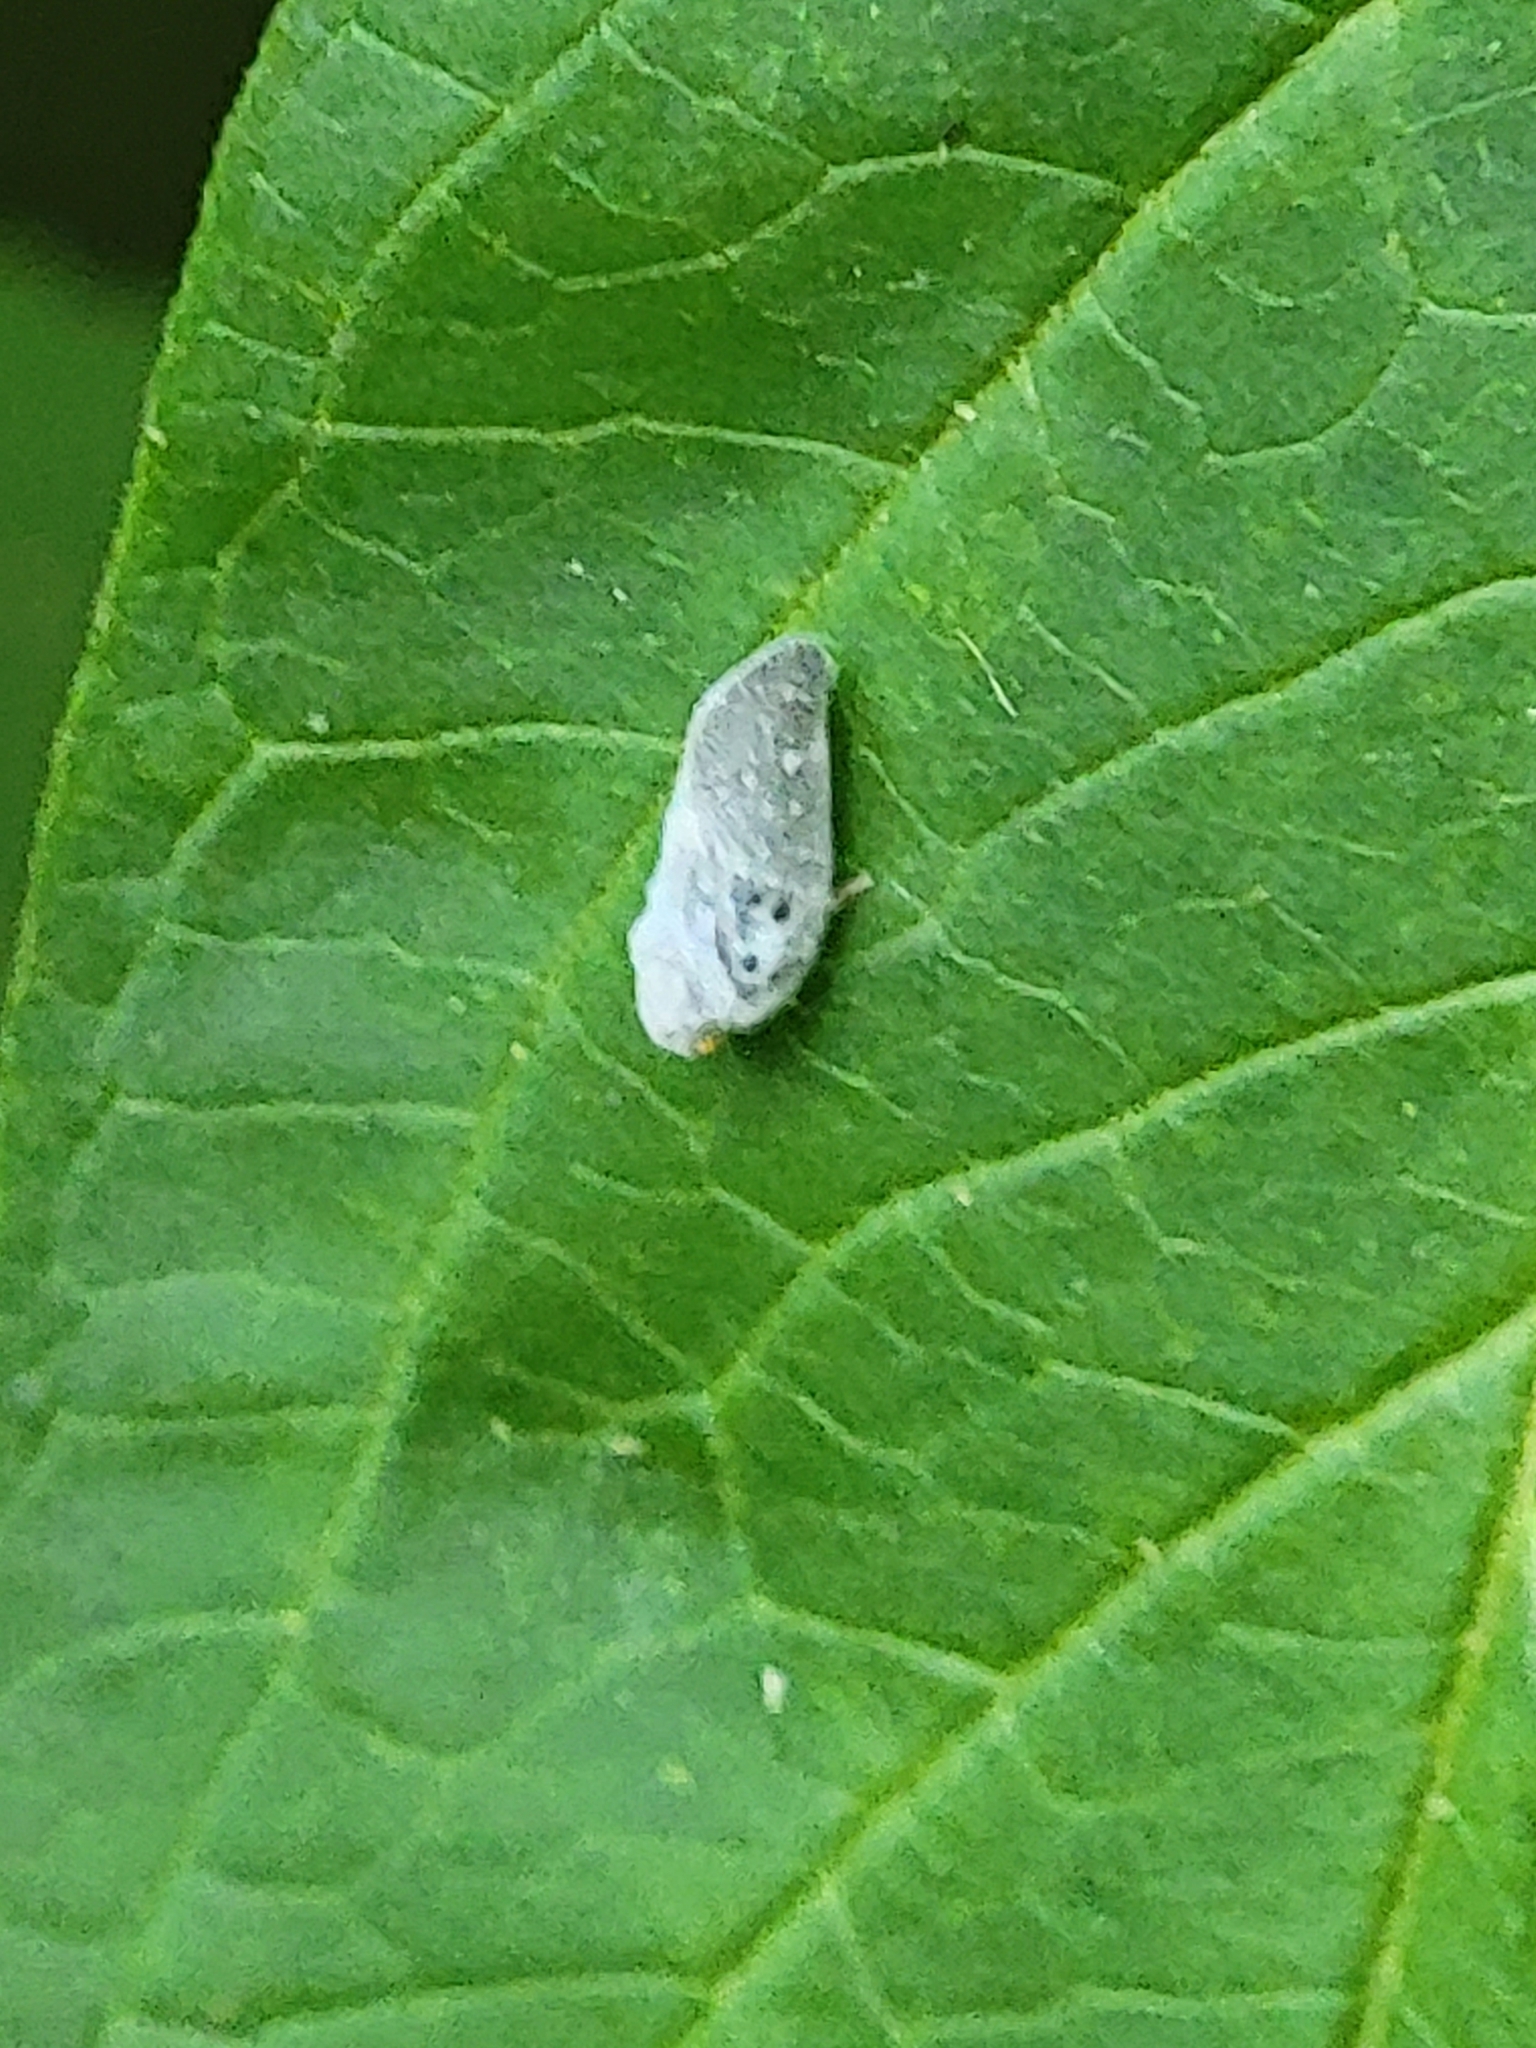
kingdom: Animalia
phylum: Arthropoda
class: Insecta
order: Hemiptera
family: Flatidae
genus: Metcalfa
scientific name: Metcalfa pruinosa
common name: Citrus flatid planthopper
